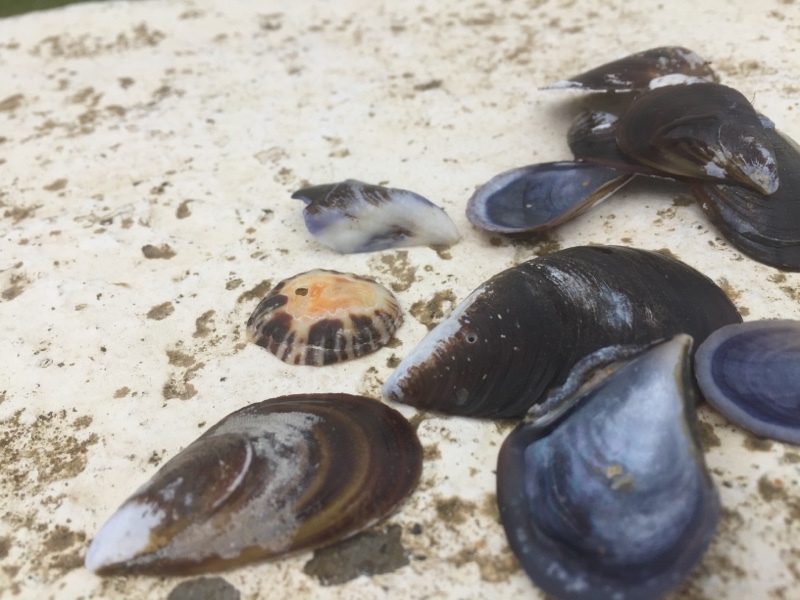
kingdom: Animalia
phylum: Mollusca
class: Bivalvia
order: Mytilida
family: Mytilidae
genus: Mytilus
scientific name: Mytilus edulis
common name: Blue mussel
